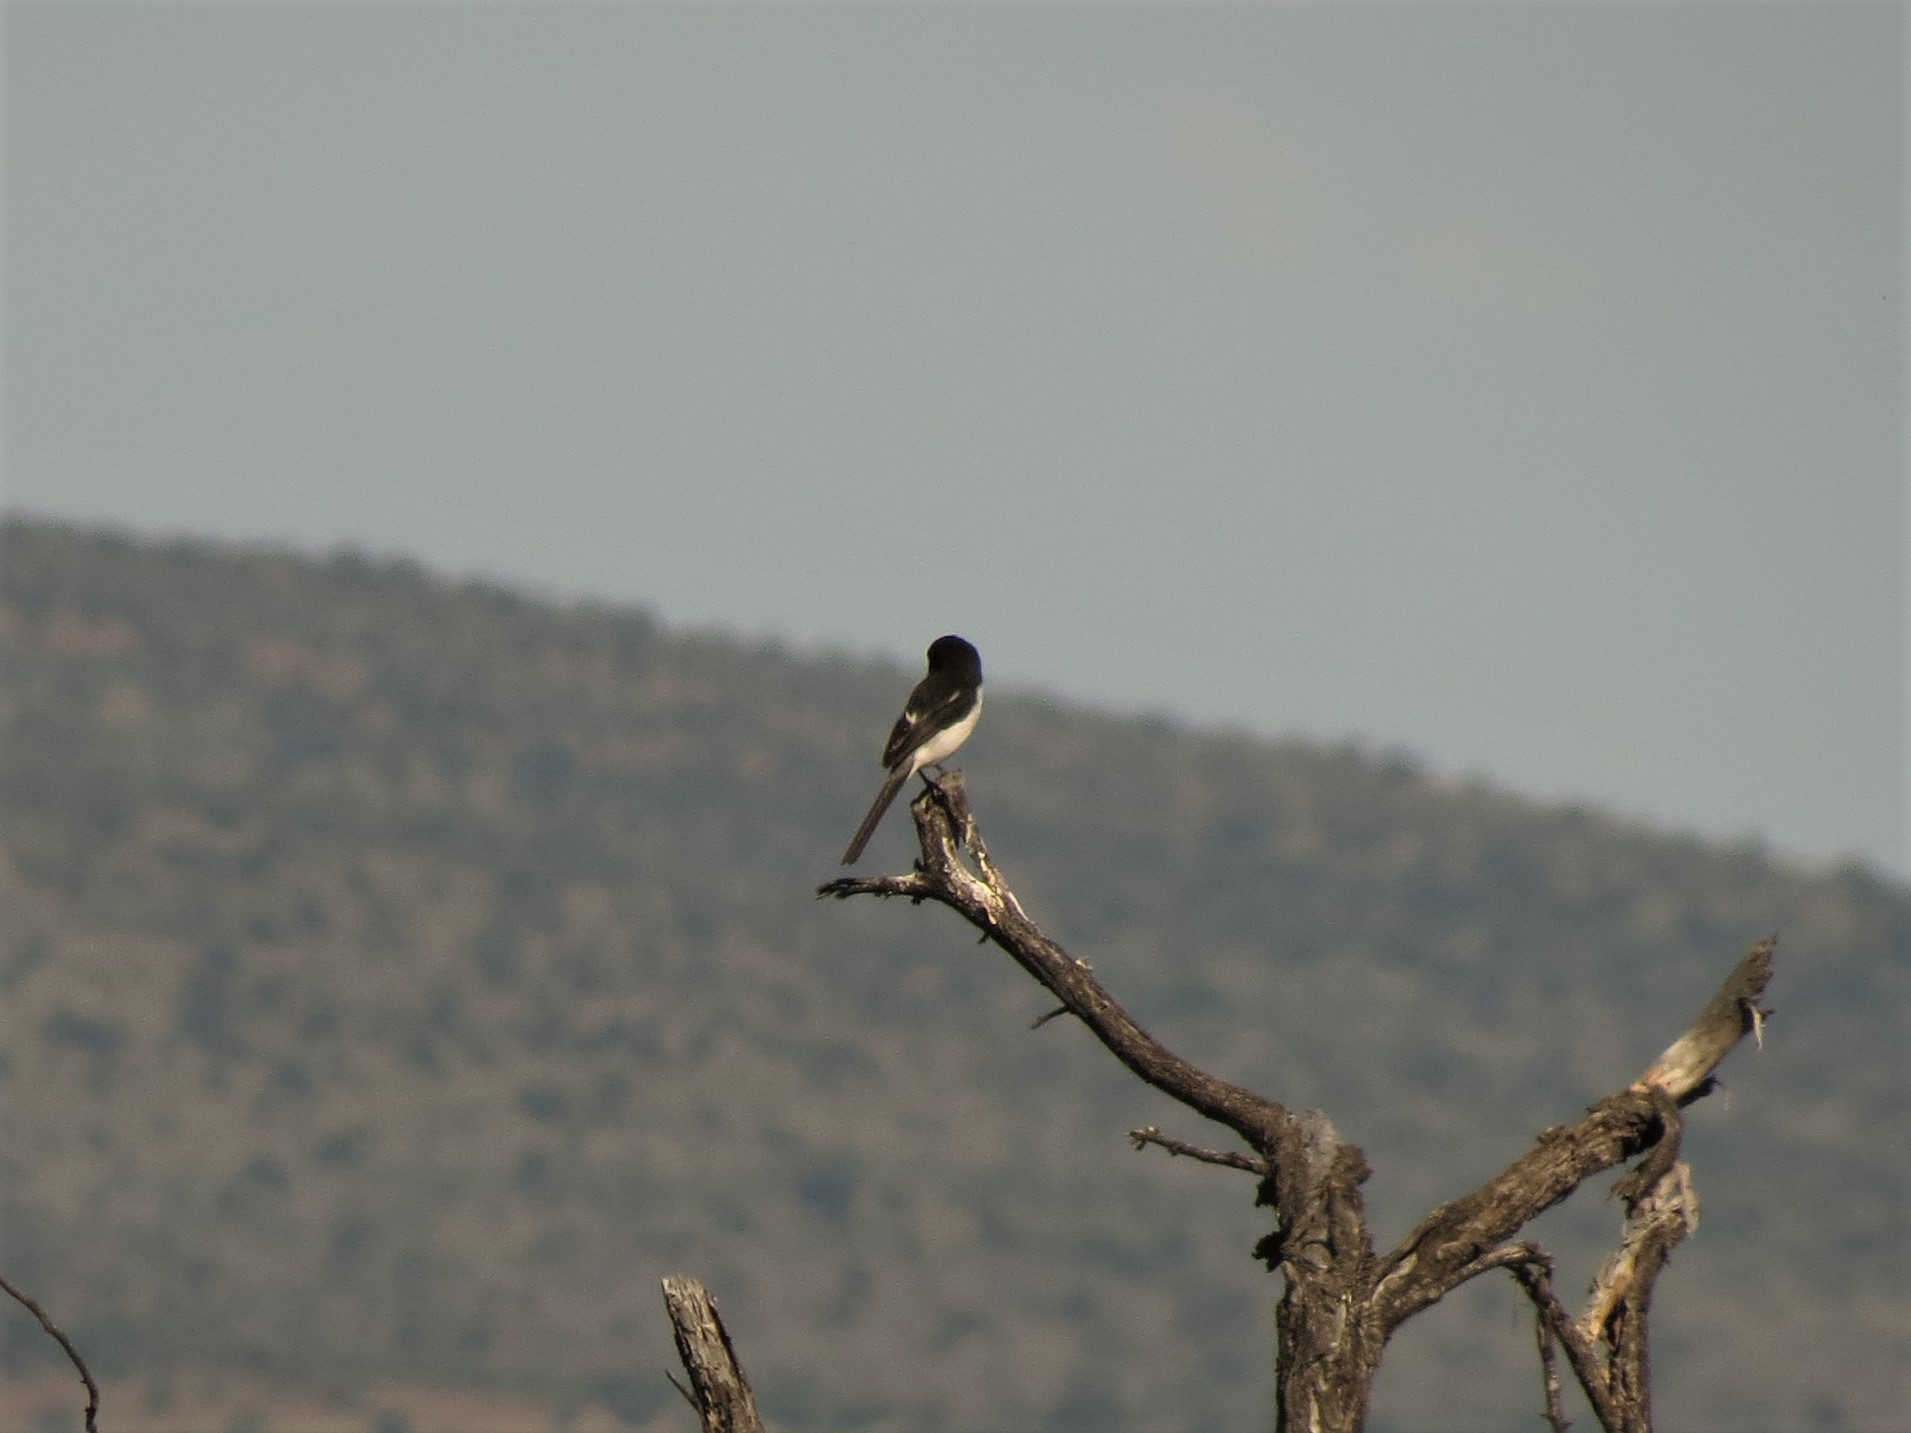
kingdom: Animalia
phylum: Chordata
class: Aves
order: Passeriformes
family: Laniidae
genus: Lanius
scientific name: Lanius collaris
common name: Southern fiscal
